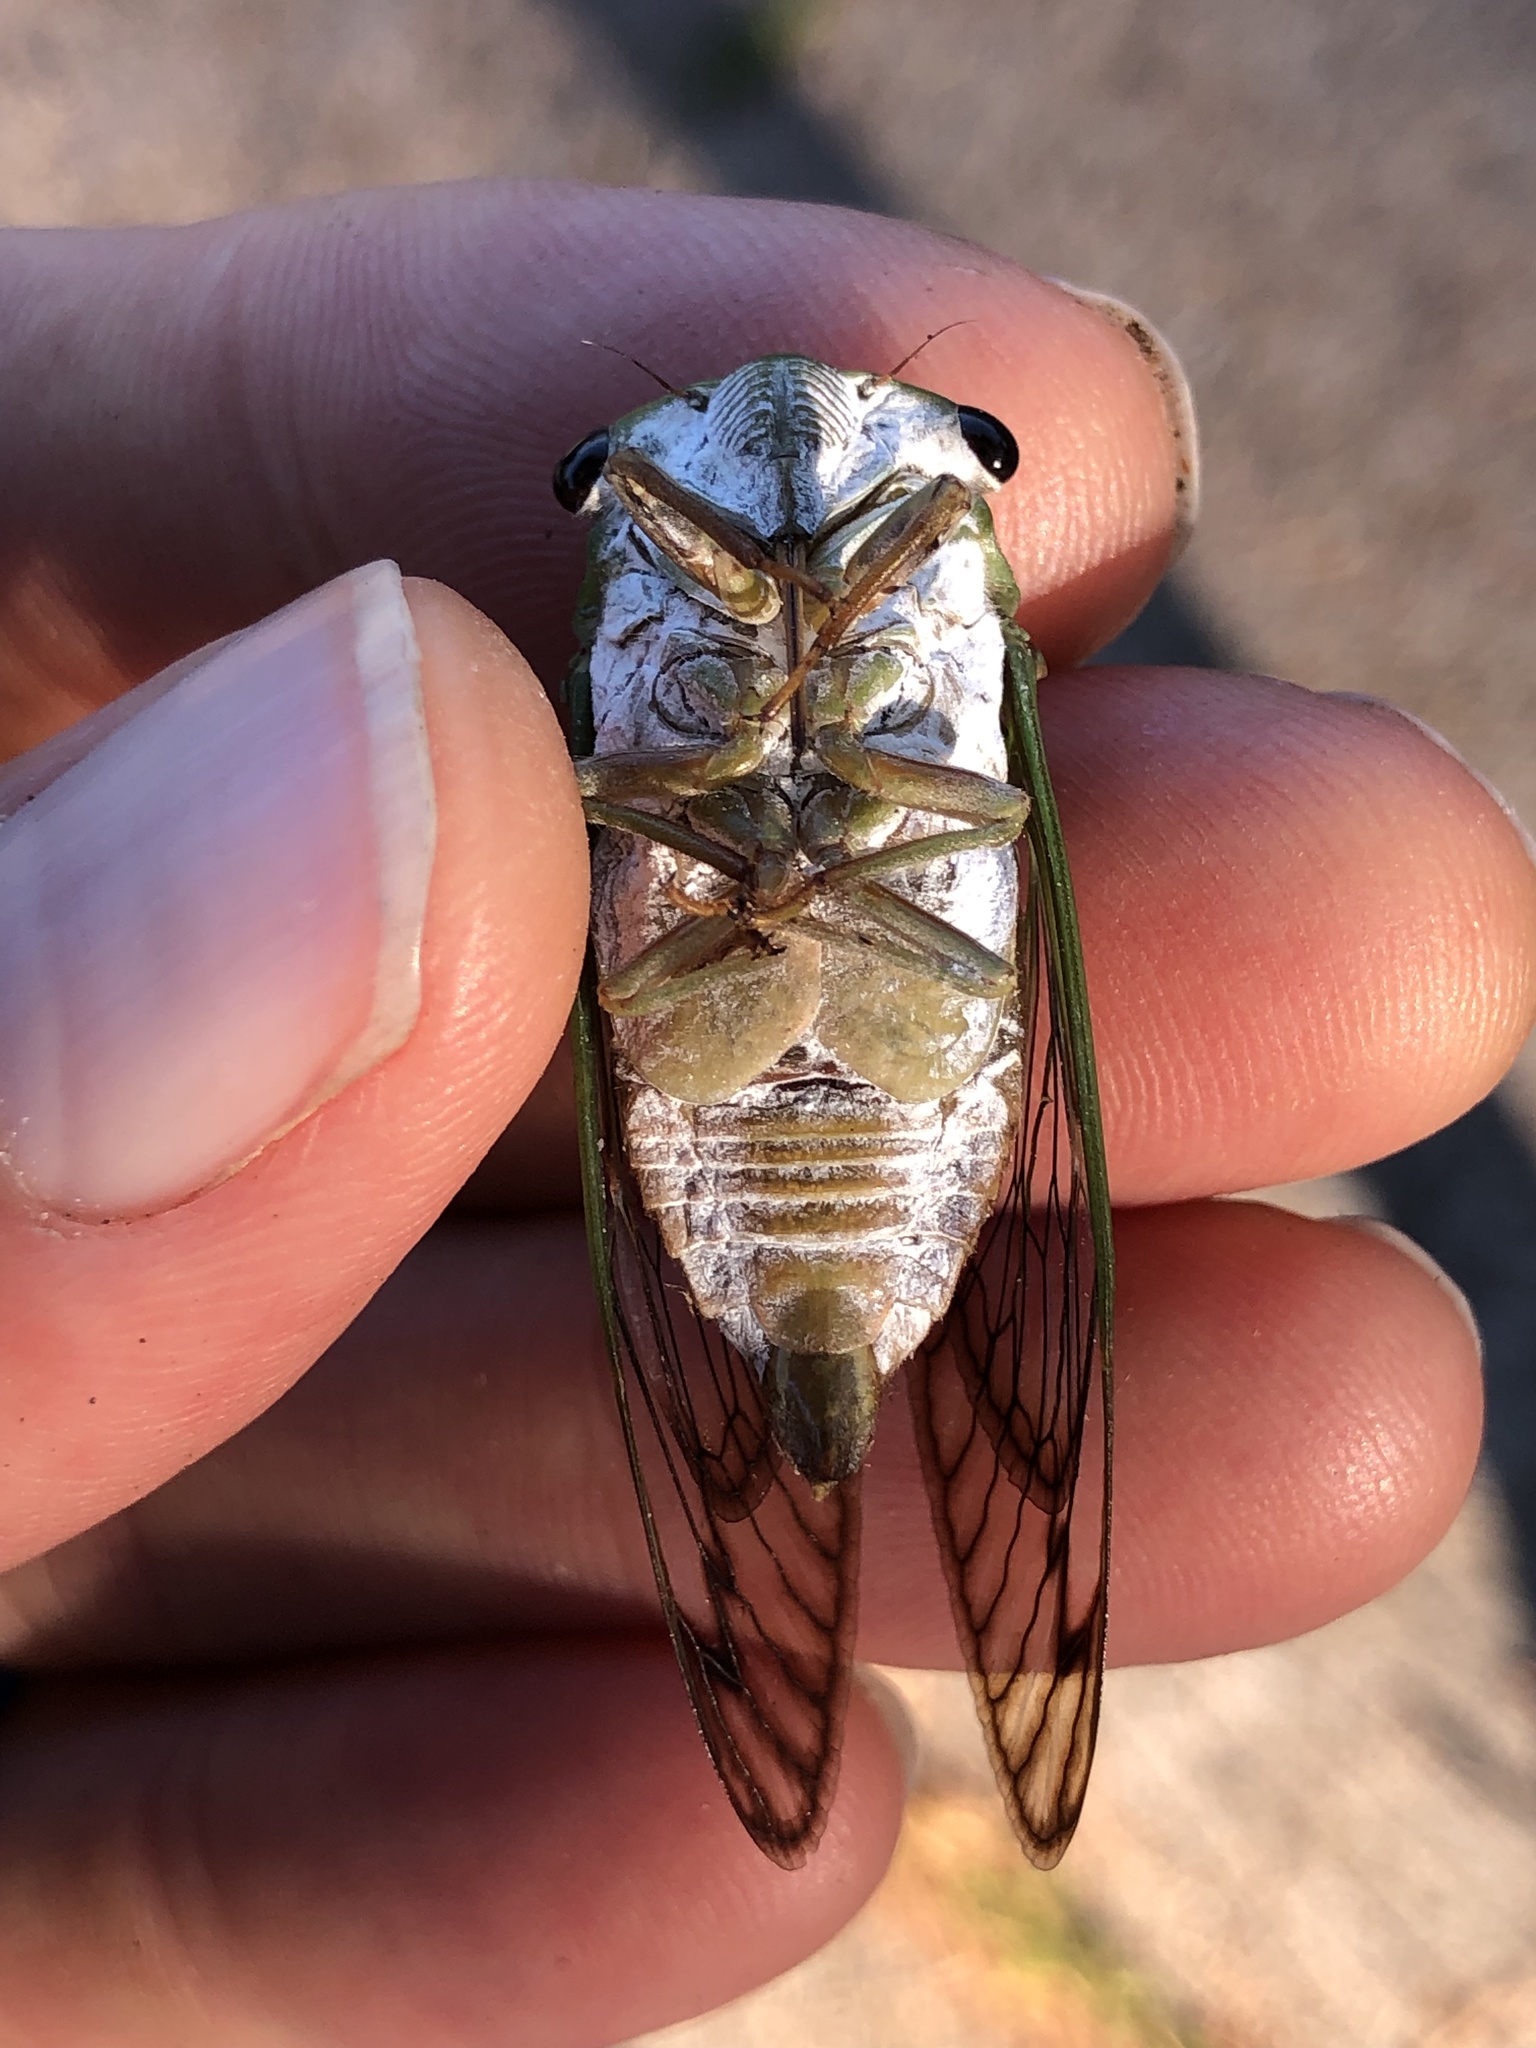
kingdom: Animalia
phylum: Arthropoda
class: Insecta
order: Hemiptera
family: Cicadidae
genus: Neotibicen
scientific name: Neotibicen superbus
